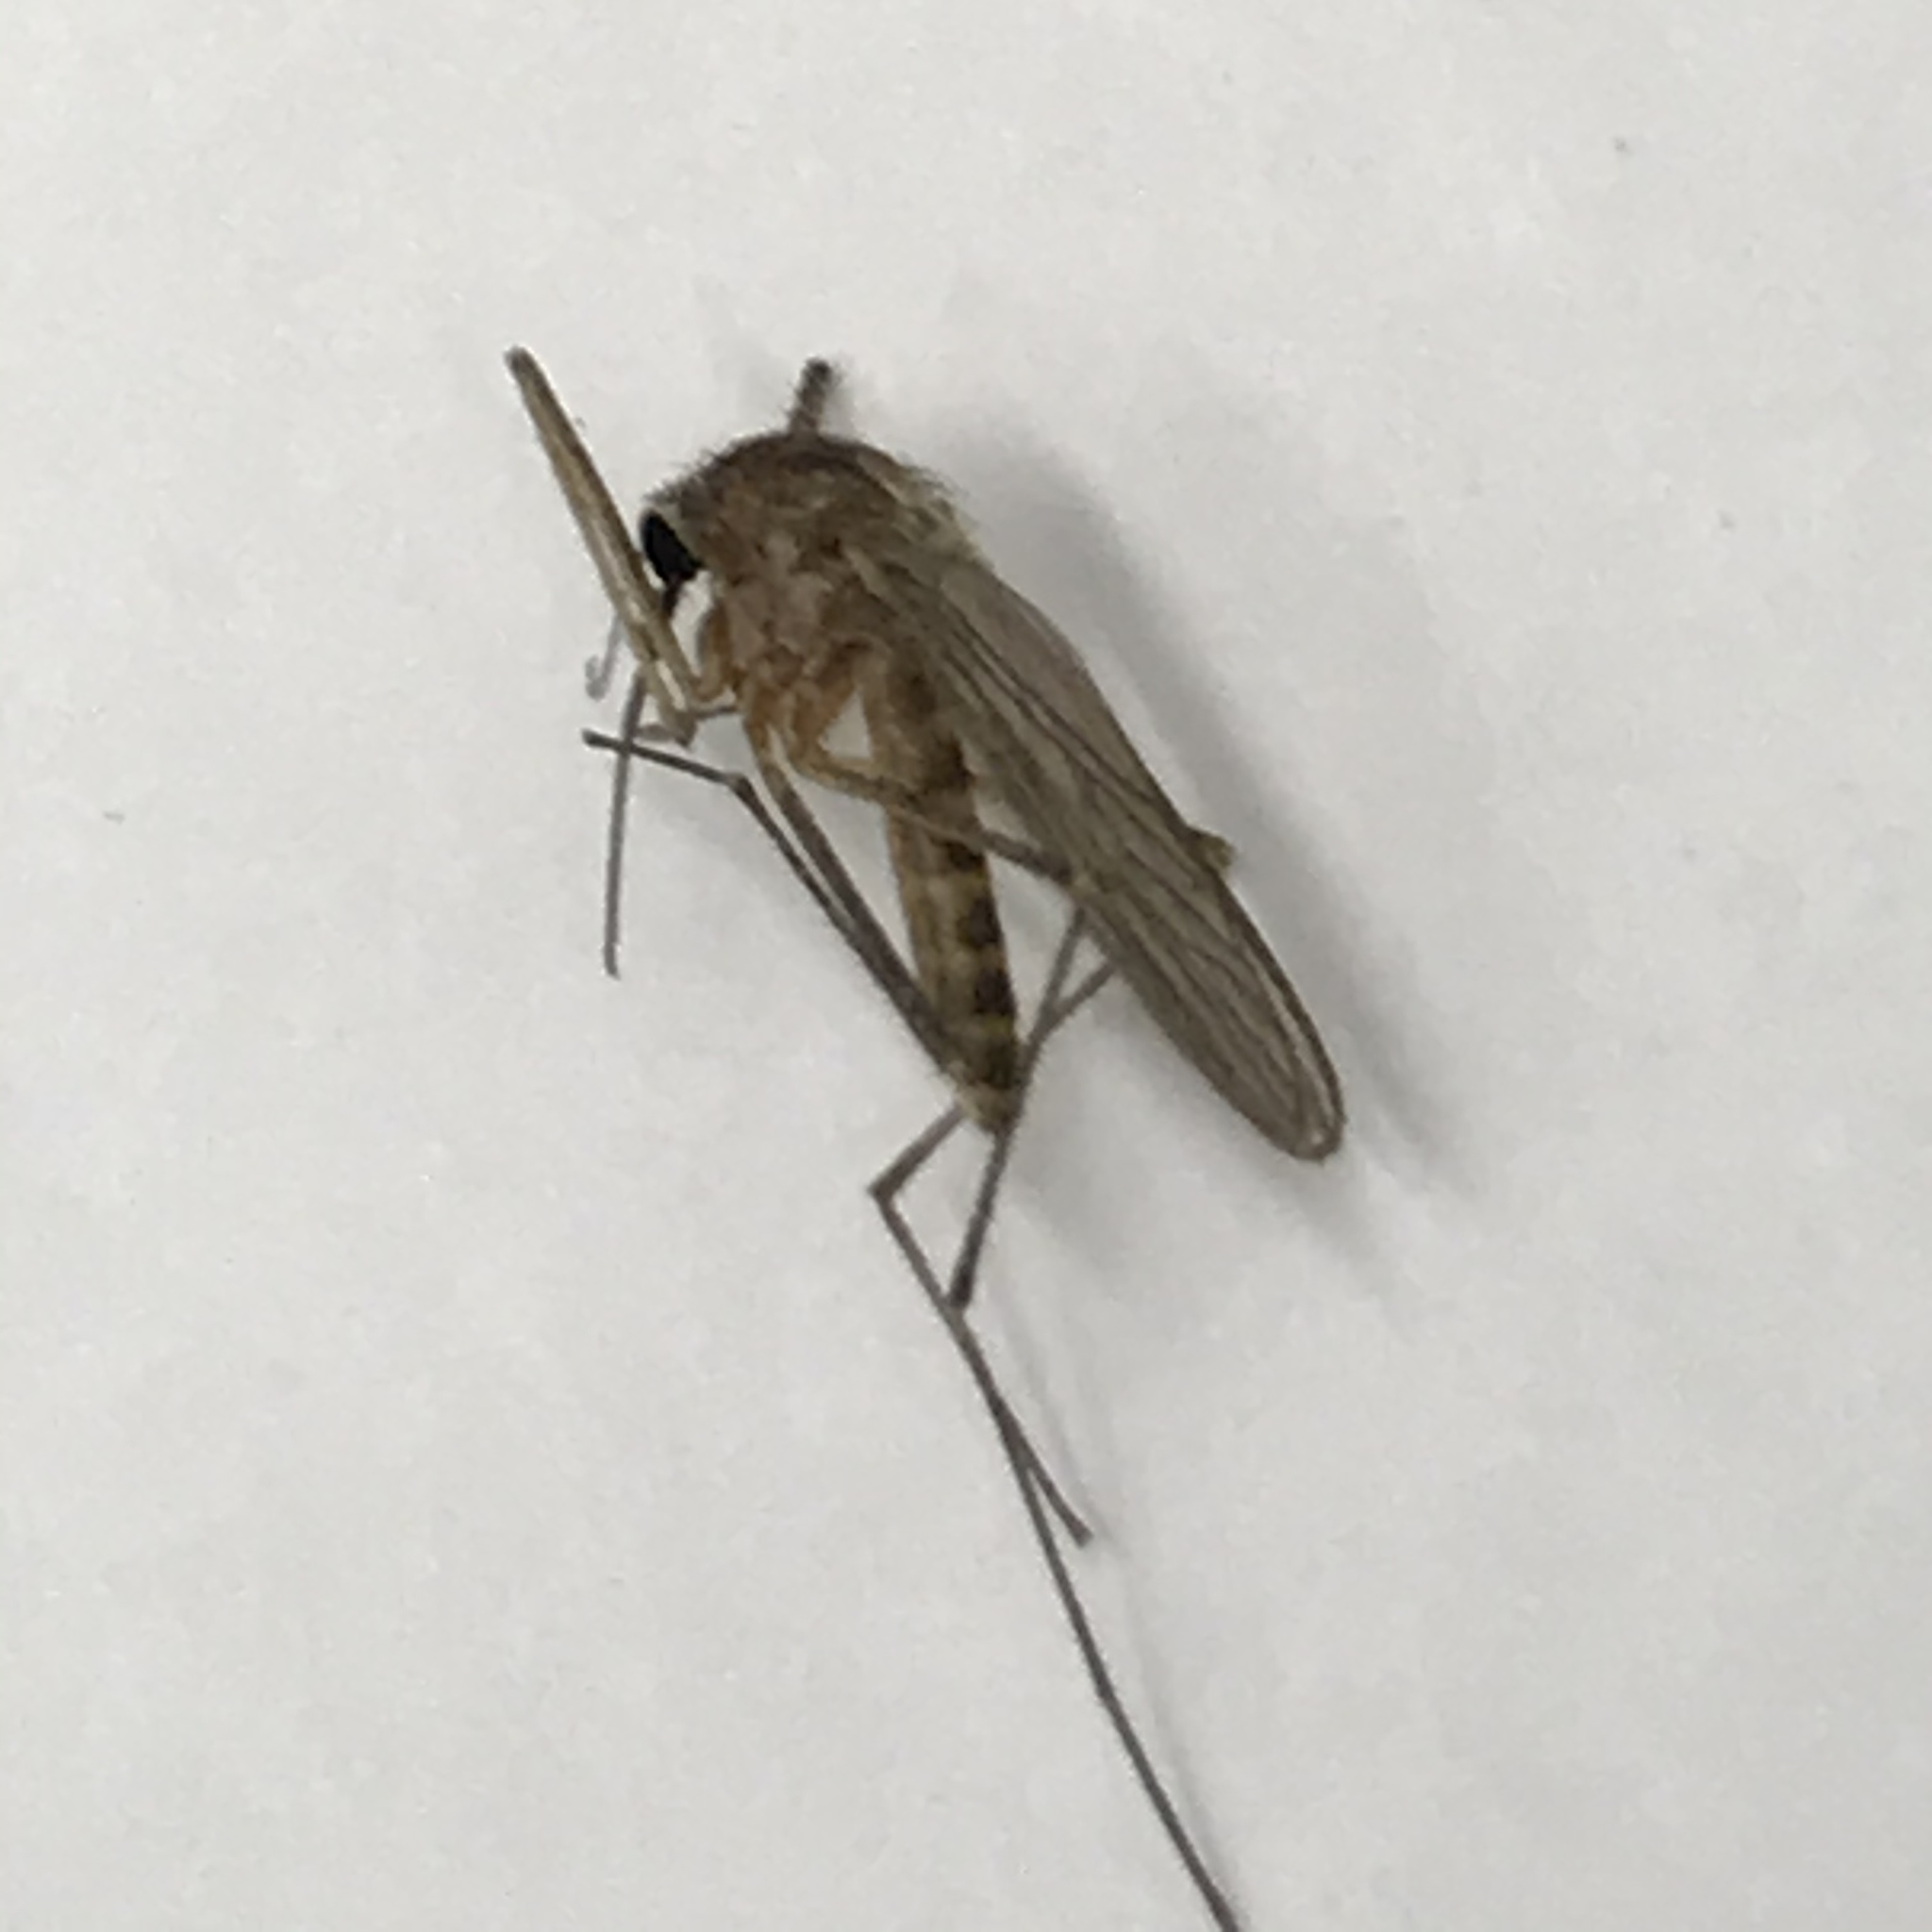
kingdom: Animalia
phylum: Arthropoda
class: Insecta
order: Diptera
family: Culicidae
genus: Culiseta
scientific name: Culiseta inornata
